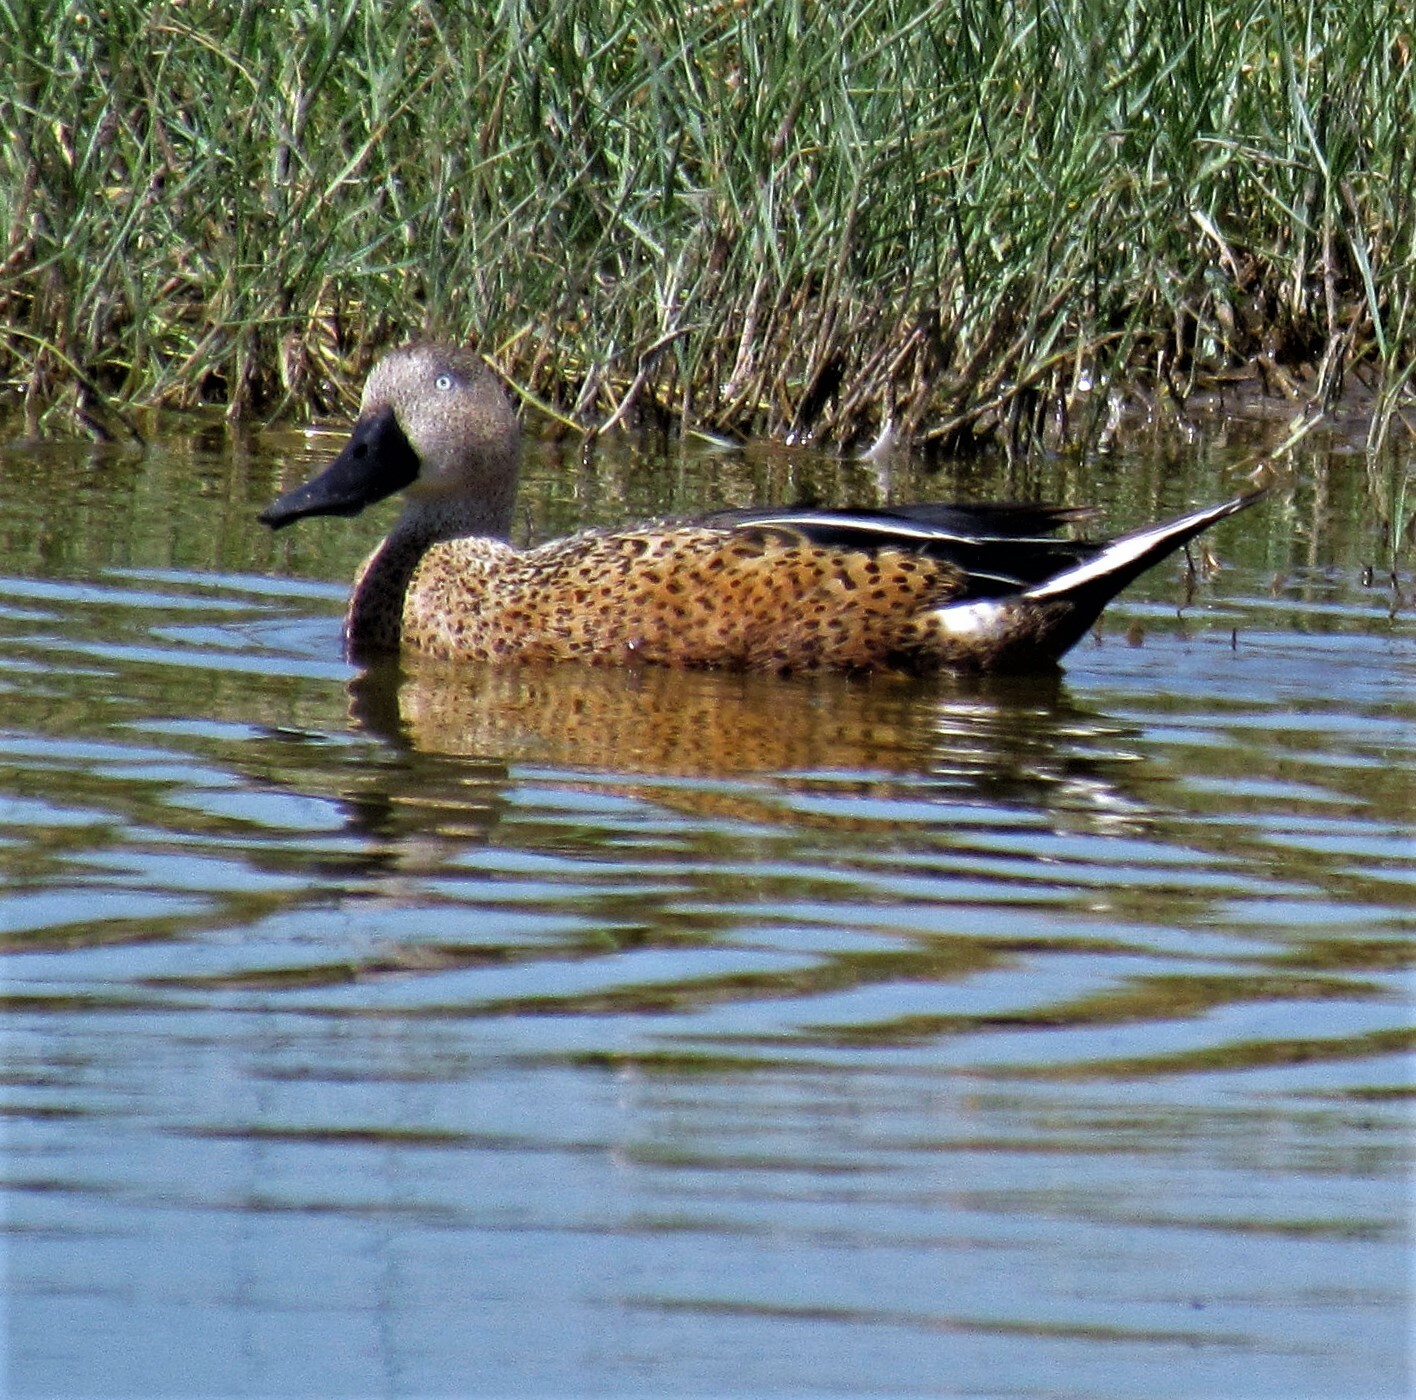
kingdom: Animalia
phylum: Chordata
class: Aves
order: Anseriformes
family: Anatidae
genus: Spatula
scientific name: Spatula platalea
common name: Red shoveler
